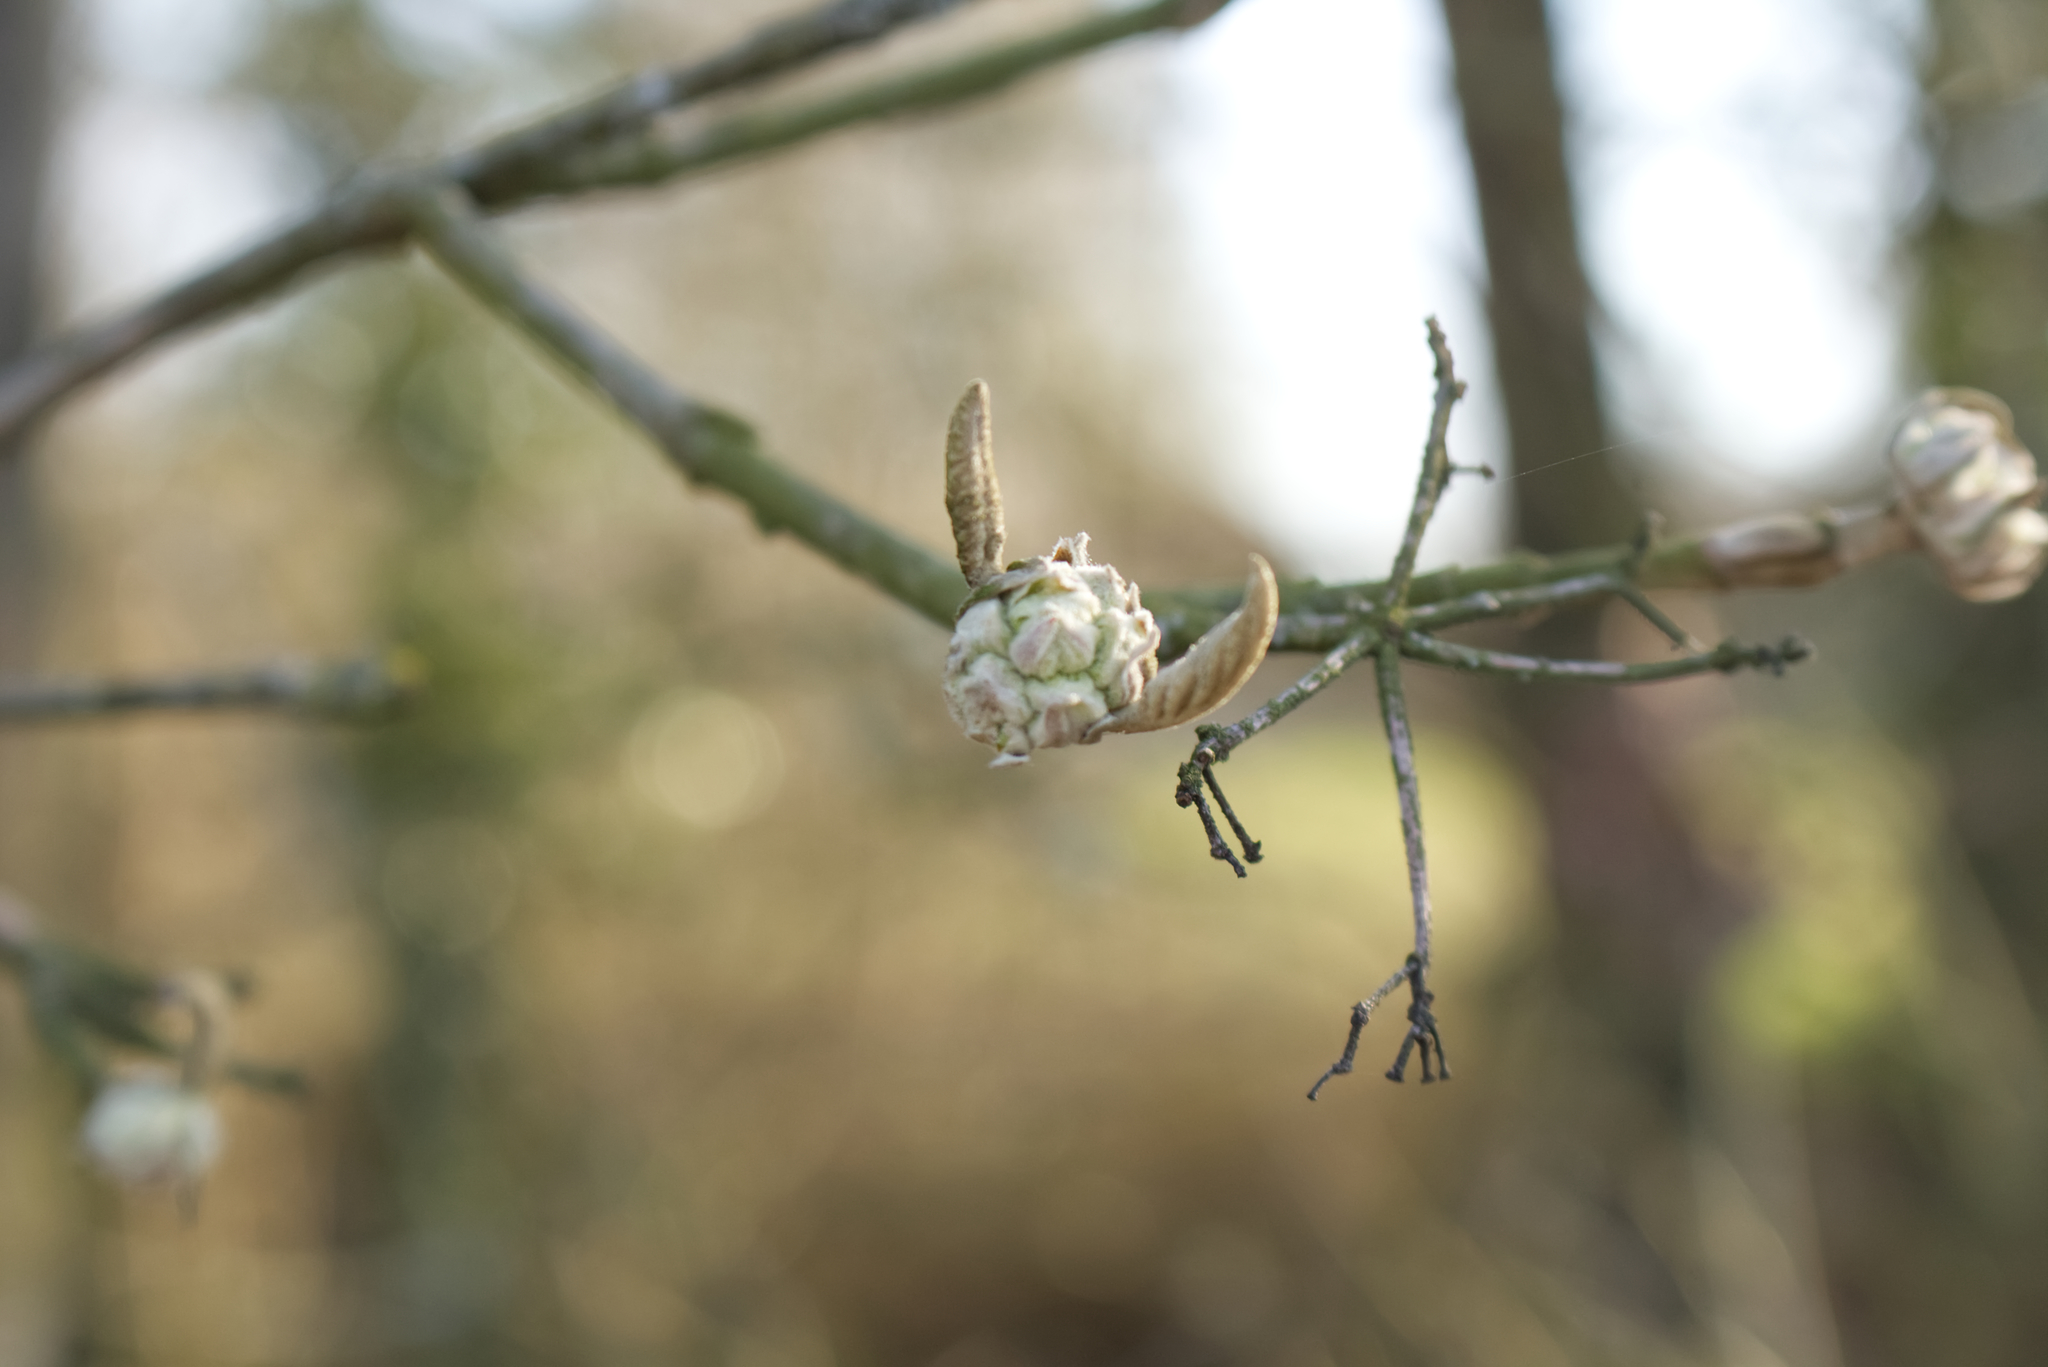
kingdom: Plantae
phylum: Tracheophyta
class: Magnoliopsida
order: Dipsacales
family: Viburnaceae
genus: Viburnum
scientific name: Viburnum lantana
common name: Wayfaring tree
